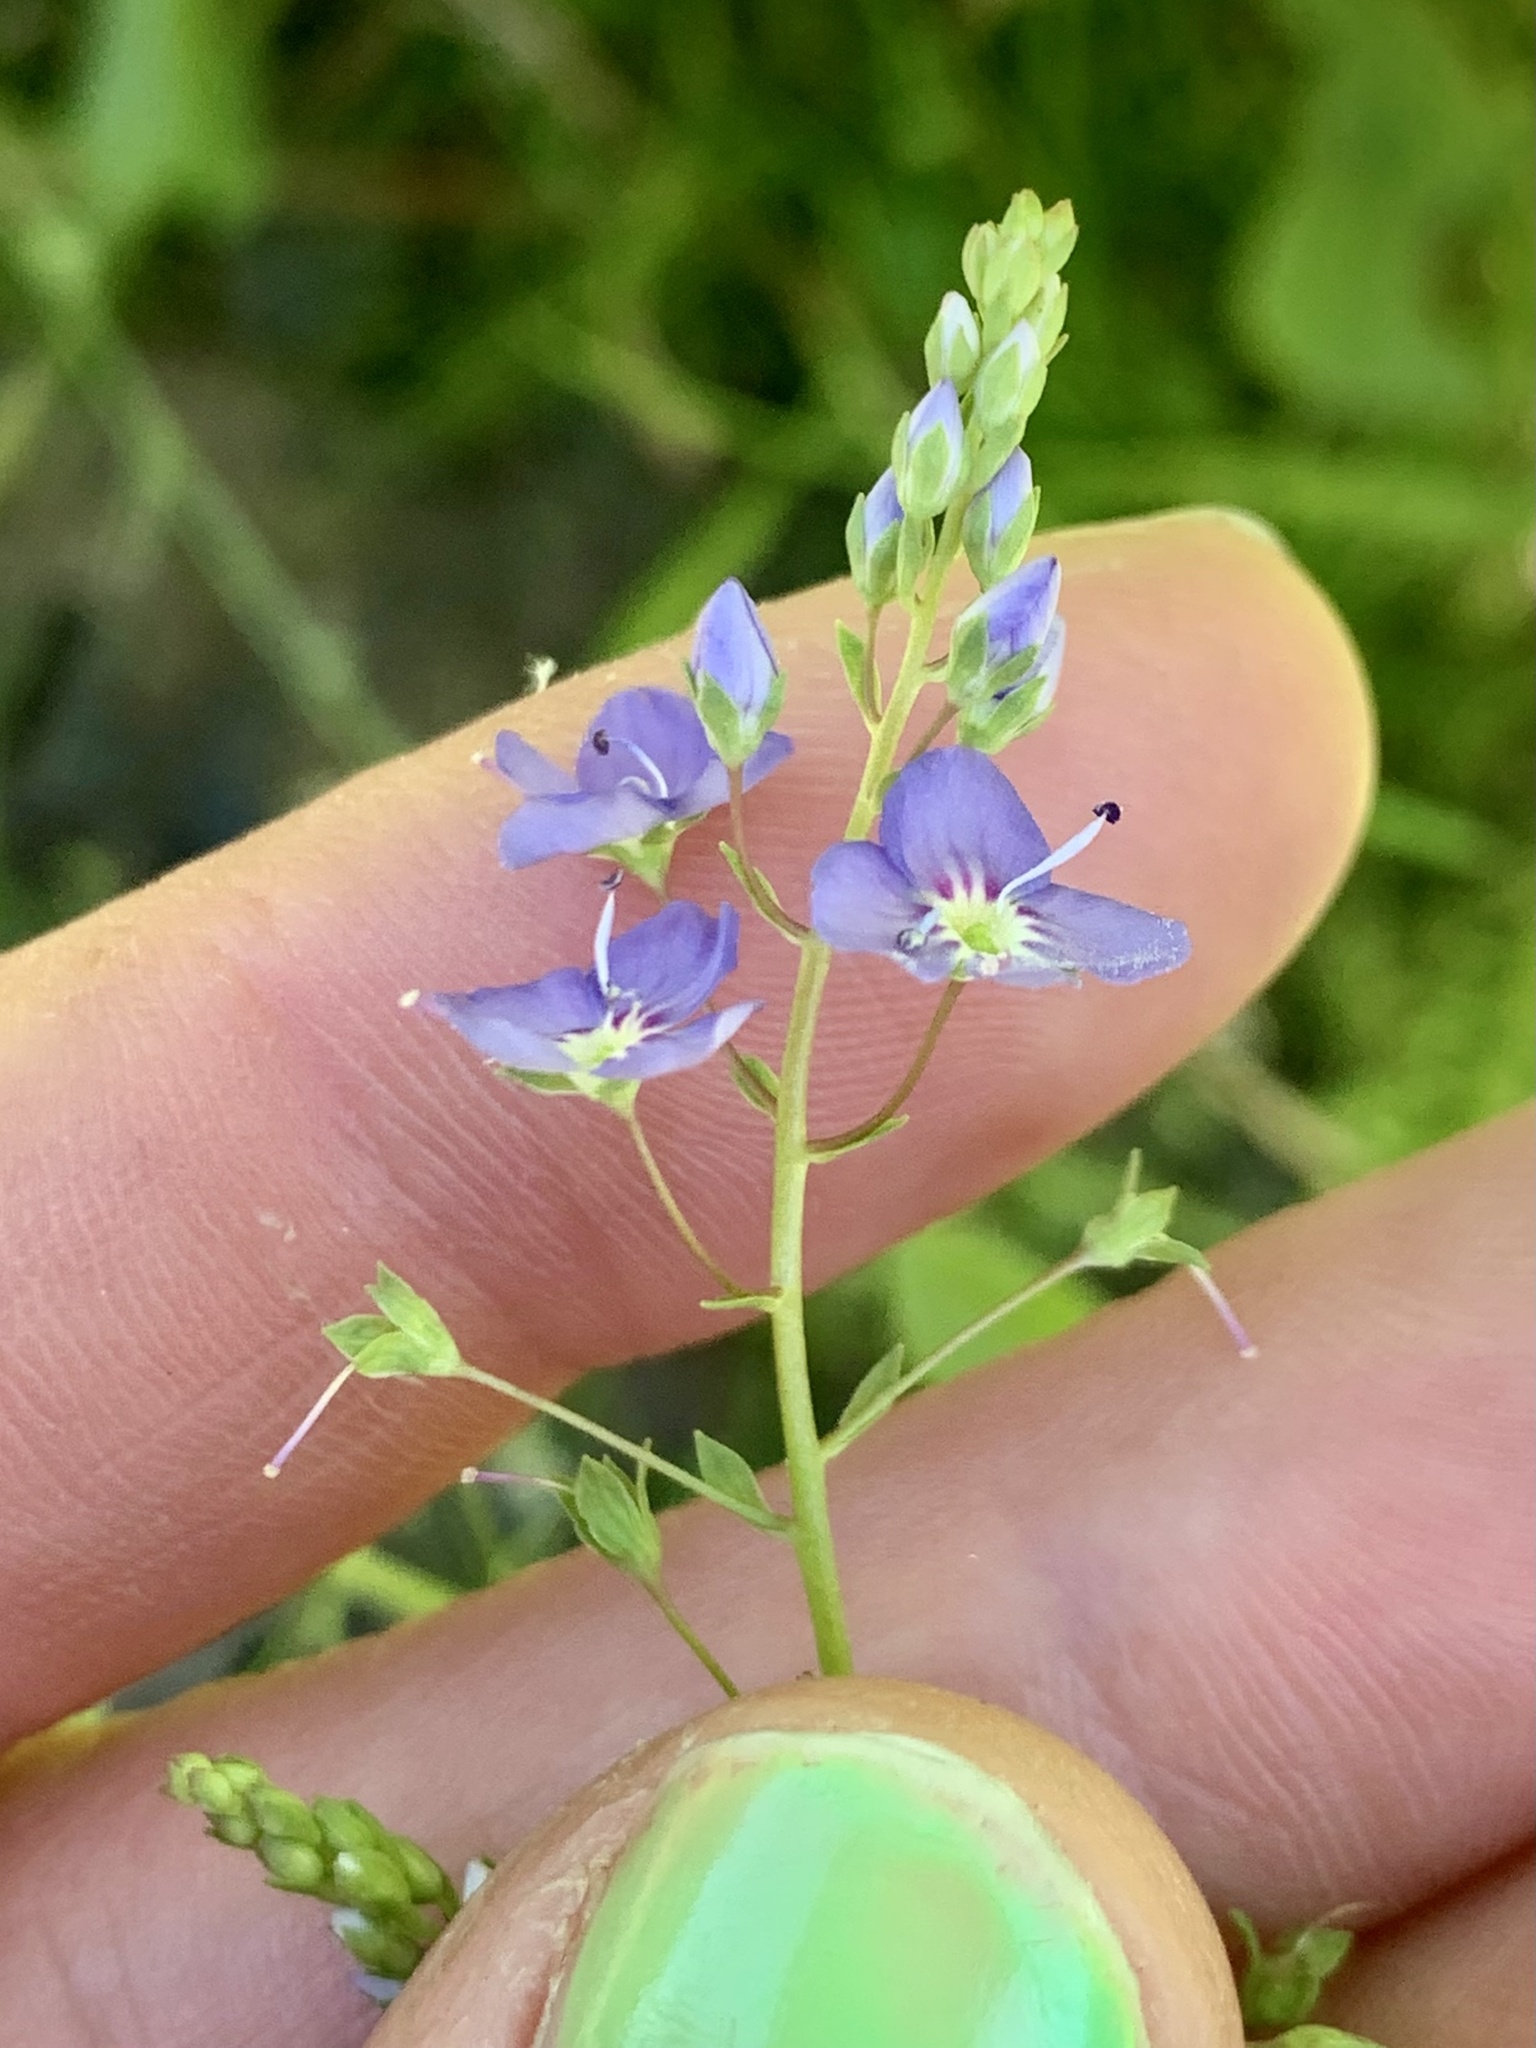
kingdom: Plantae
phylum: Tracheophyta
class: Magnoliopsida
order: Lamiales
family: Plantaginaceae
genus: Veronica
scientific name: Veronica americana
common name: American brooklime
